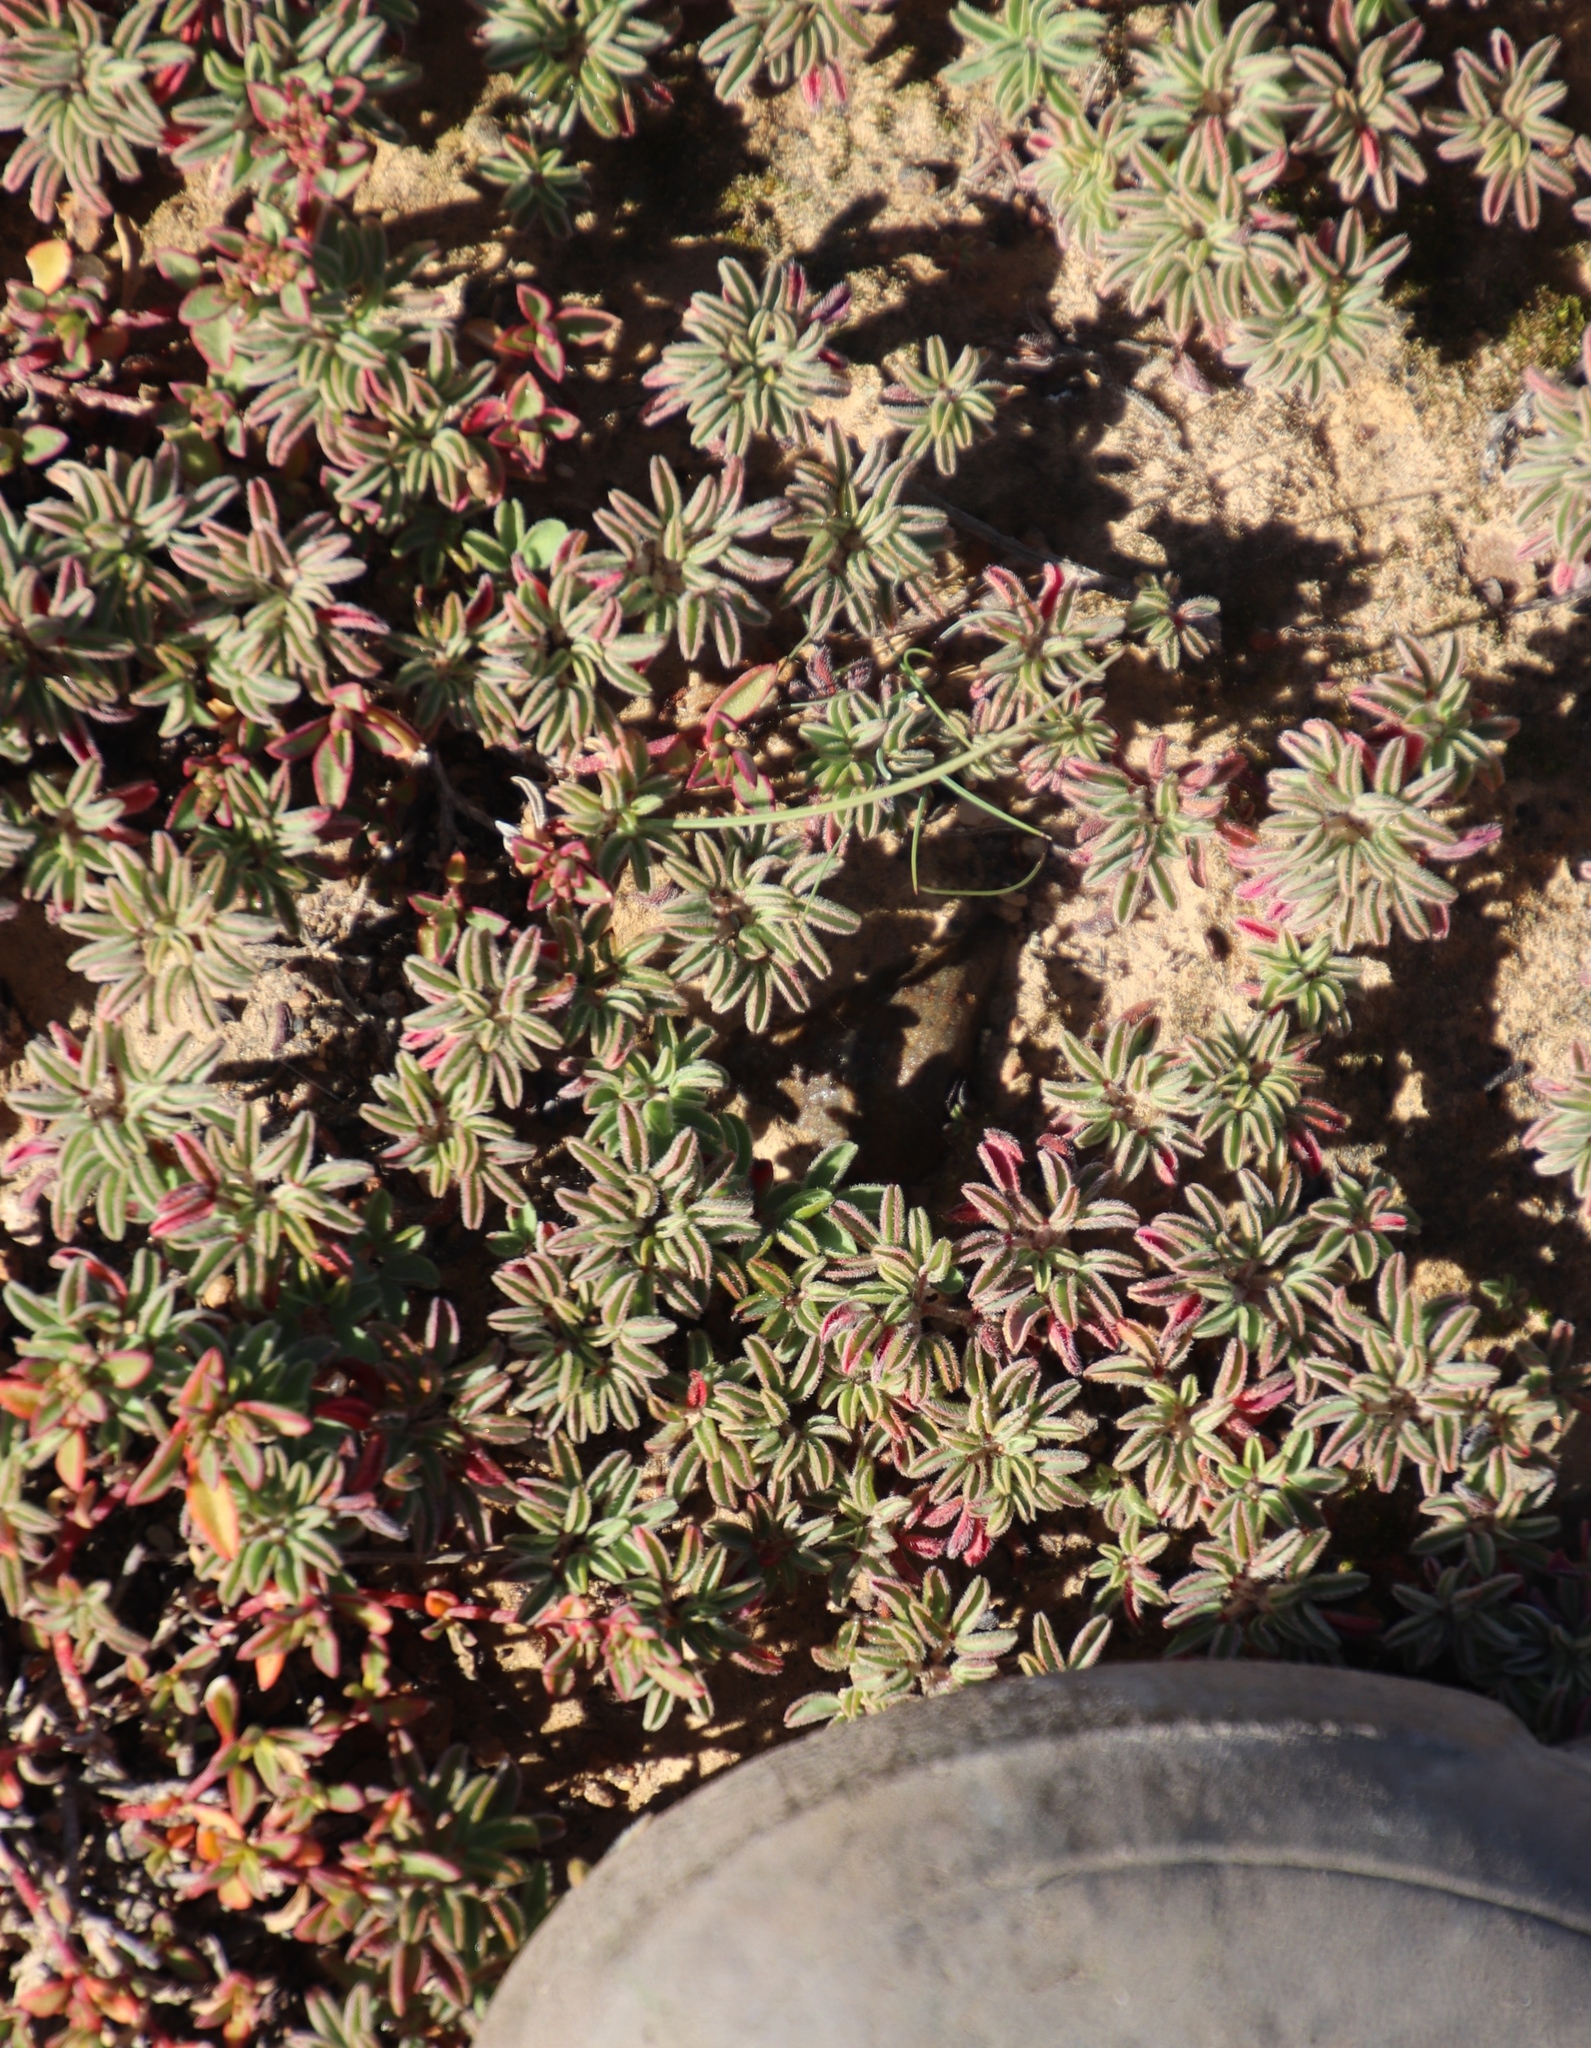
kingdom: Plantae
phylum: Tracheophyta
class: Magnoliopsida
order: Oxalidales
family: Oxalidaceae
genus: Oxalis
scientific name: Oxalis callosa
